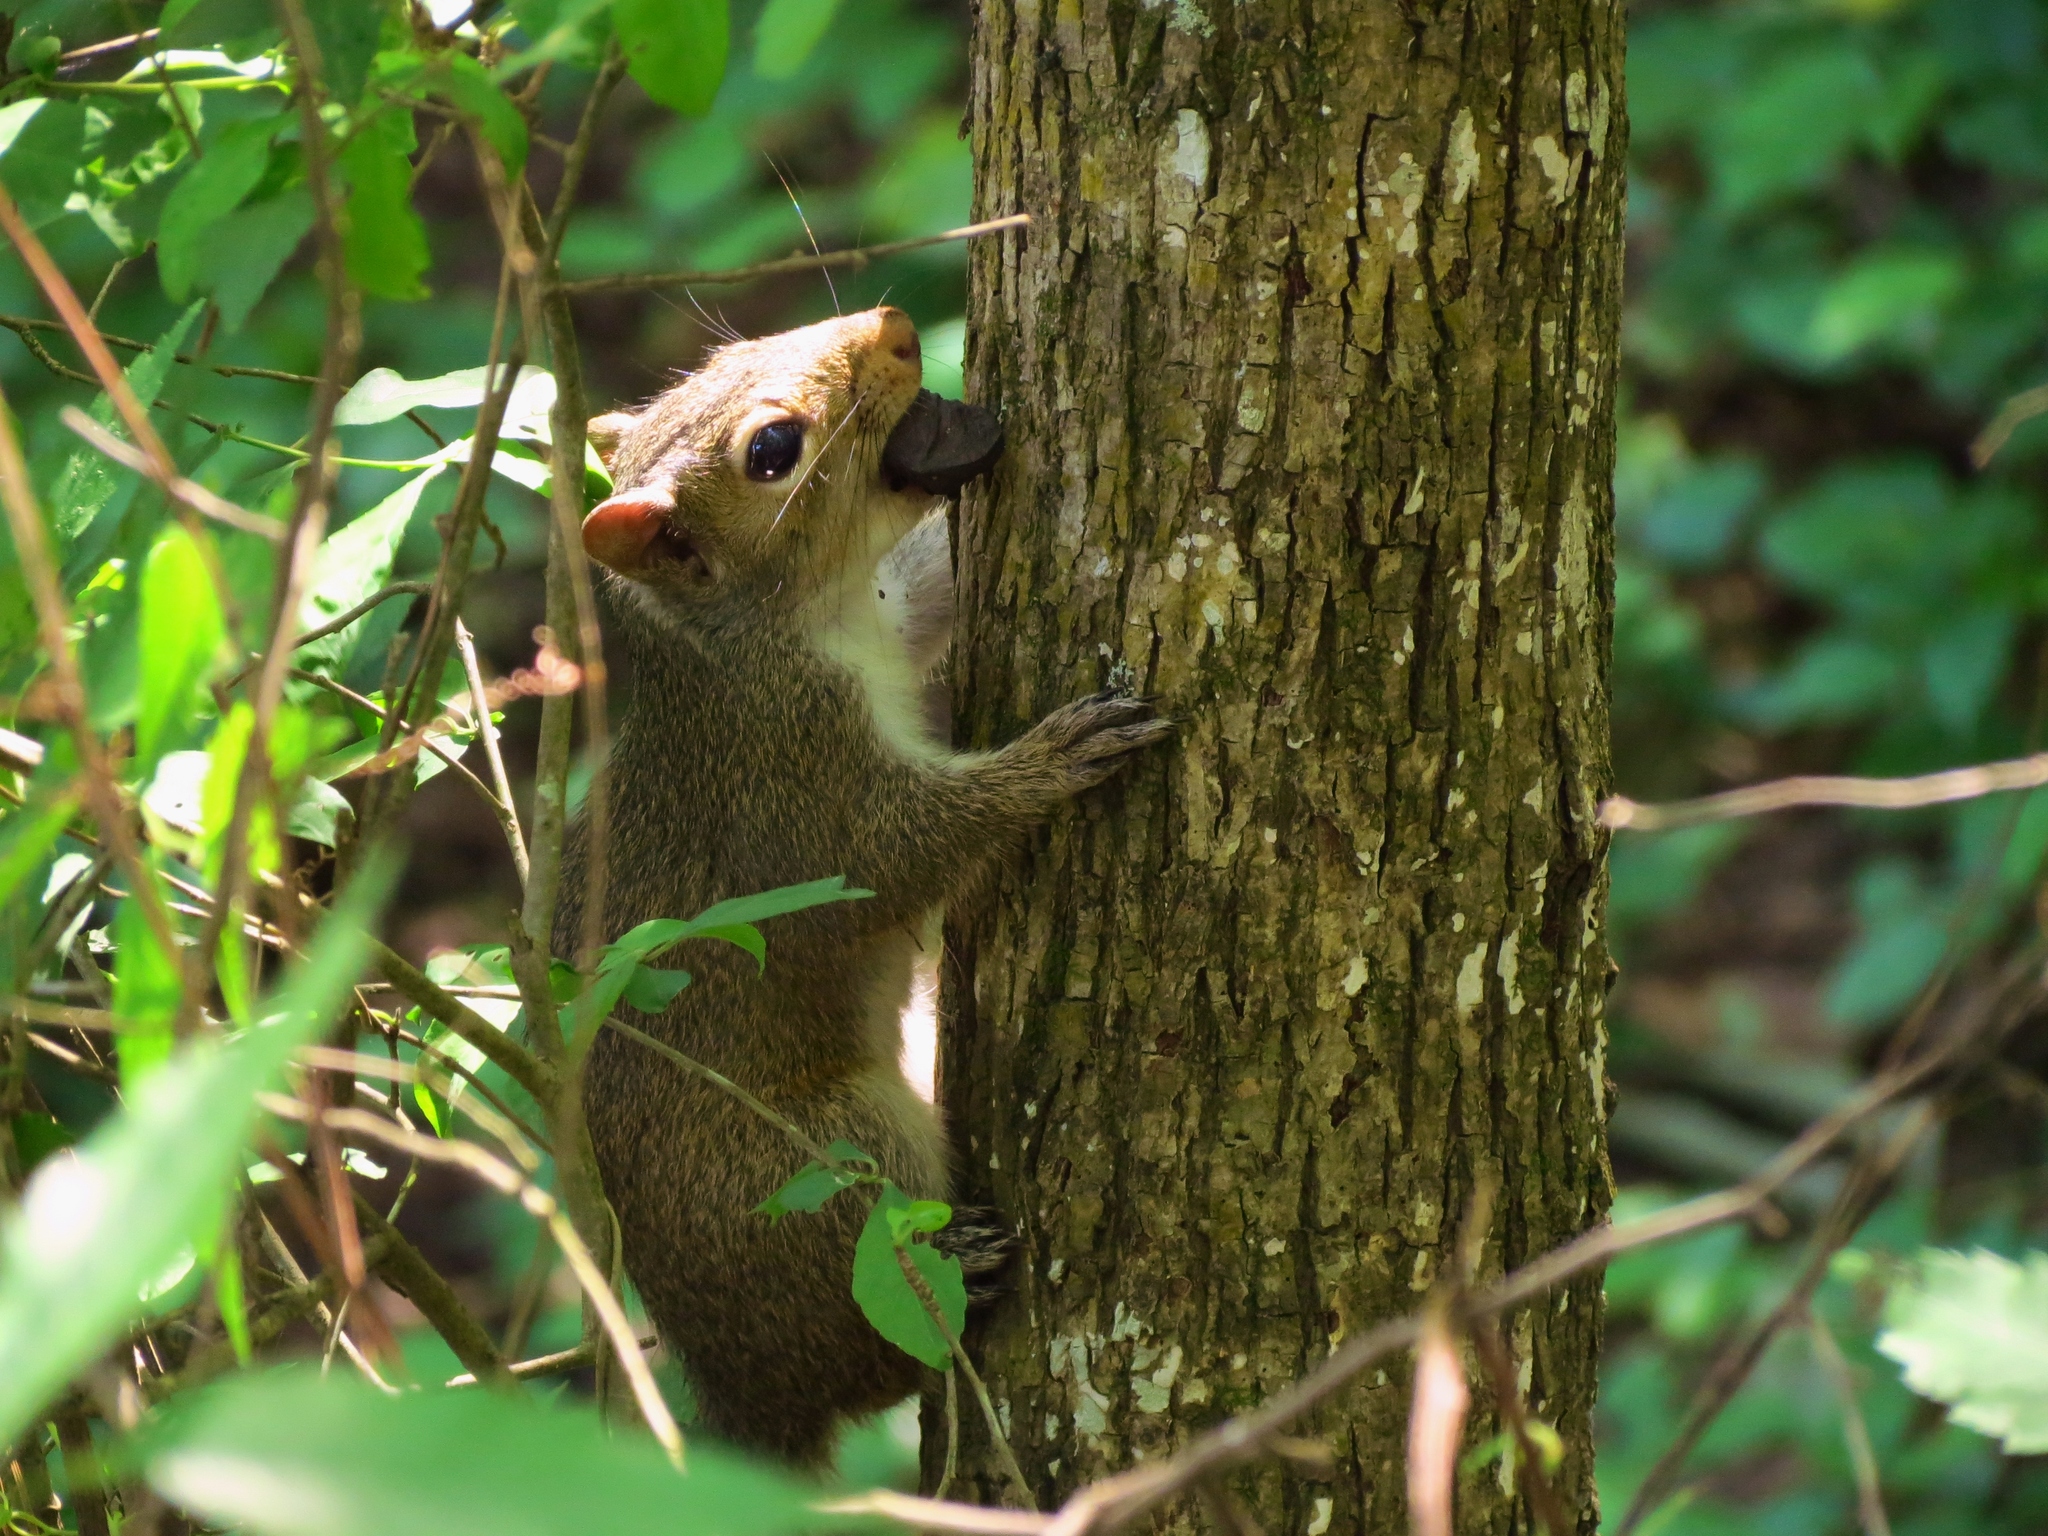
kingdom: Animalia
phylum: Chordata
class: Mammalia
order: Rodentia
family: Sciuridae
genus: Sciurus
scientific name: Sciurus carolinensis
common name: Eastern gray squirrel
